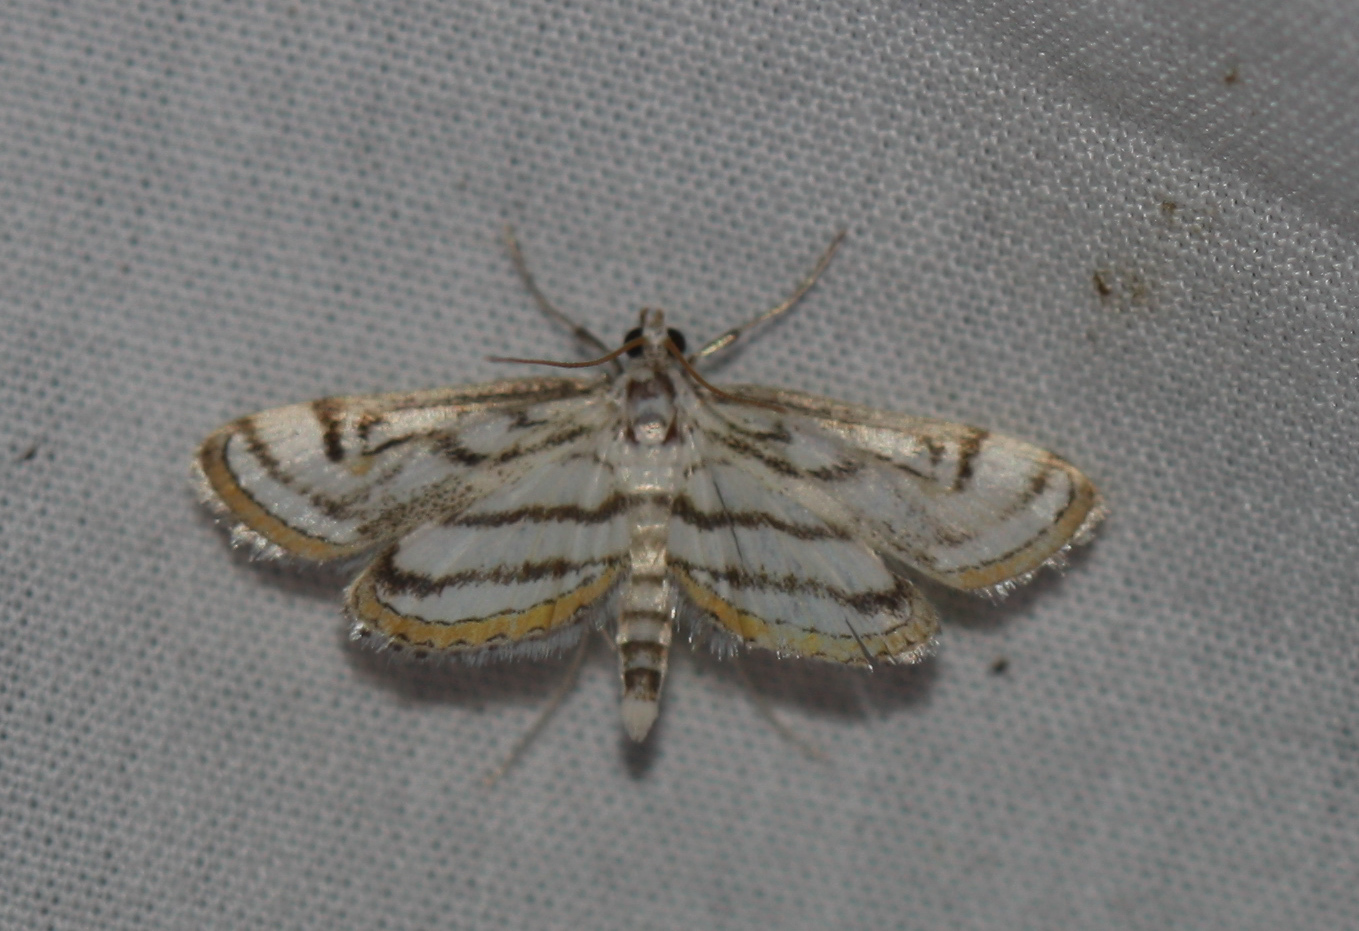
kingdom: Animalia
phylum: Arthropoda
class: Insecta
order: Lepidoptera
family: Crambidae
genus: Parapoynx
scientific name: Parapoynx badiusalis
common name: Chestnut-marked pondweed moth
